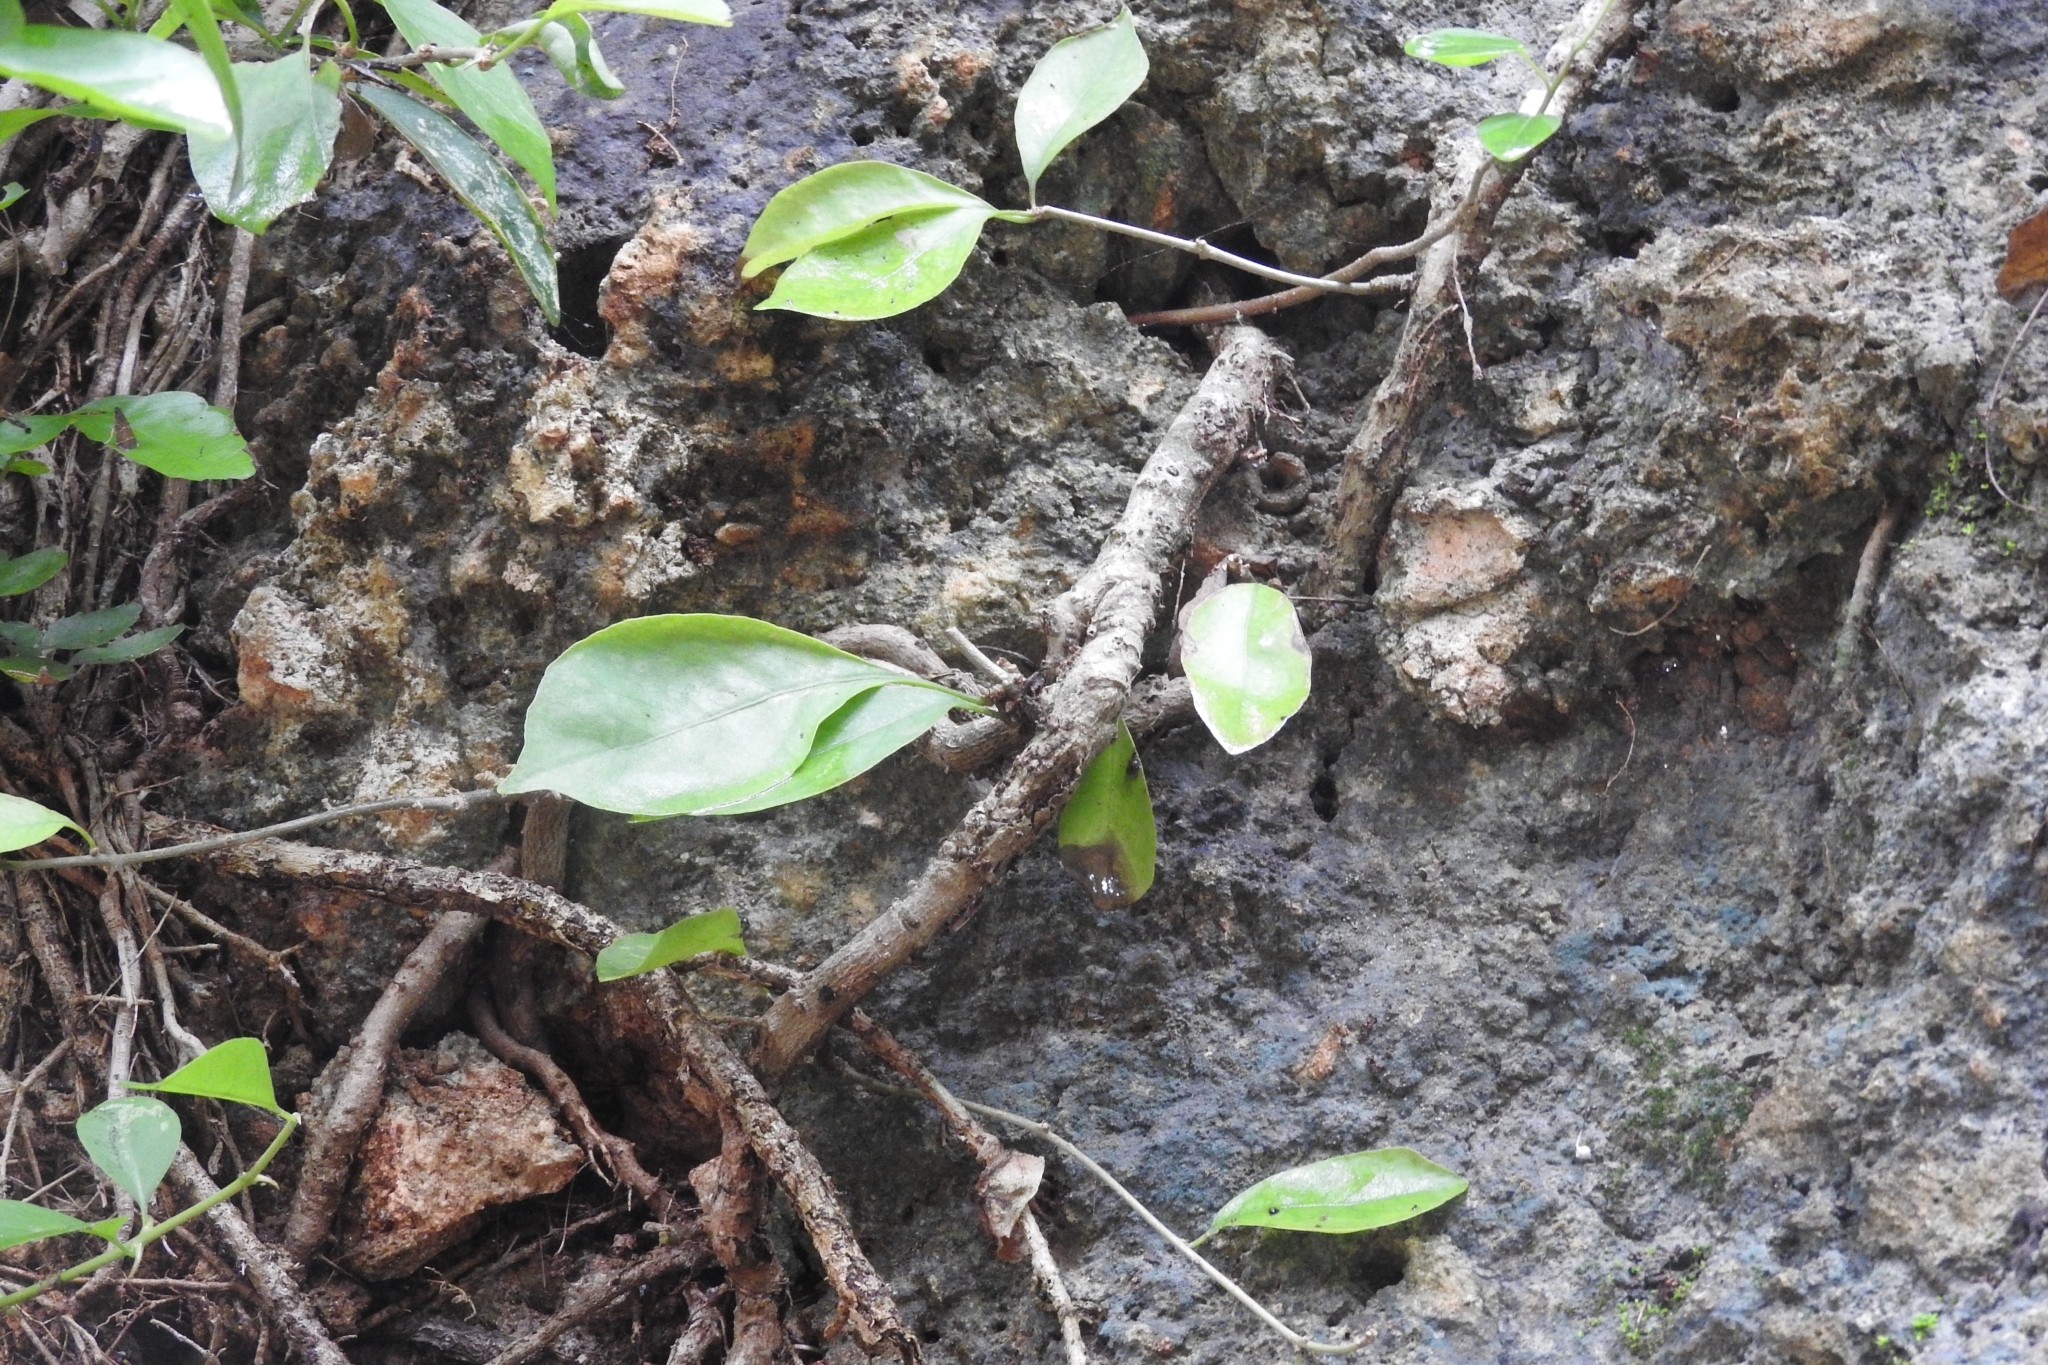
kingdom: Plantae
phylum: Tracheophyta
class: Polypodiopsida
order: Polypodiales
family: Polypodiaceae
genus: Microgramma
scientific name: Microgramma nitida
